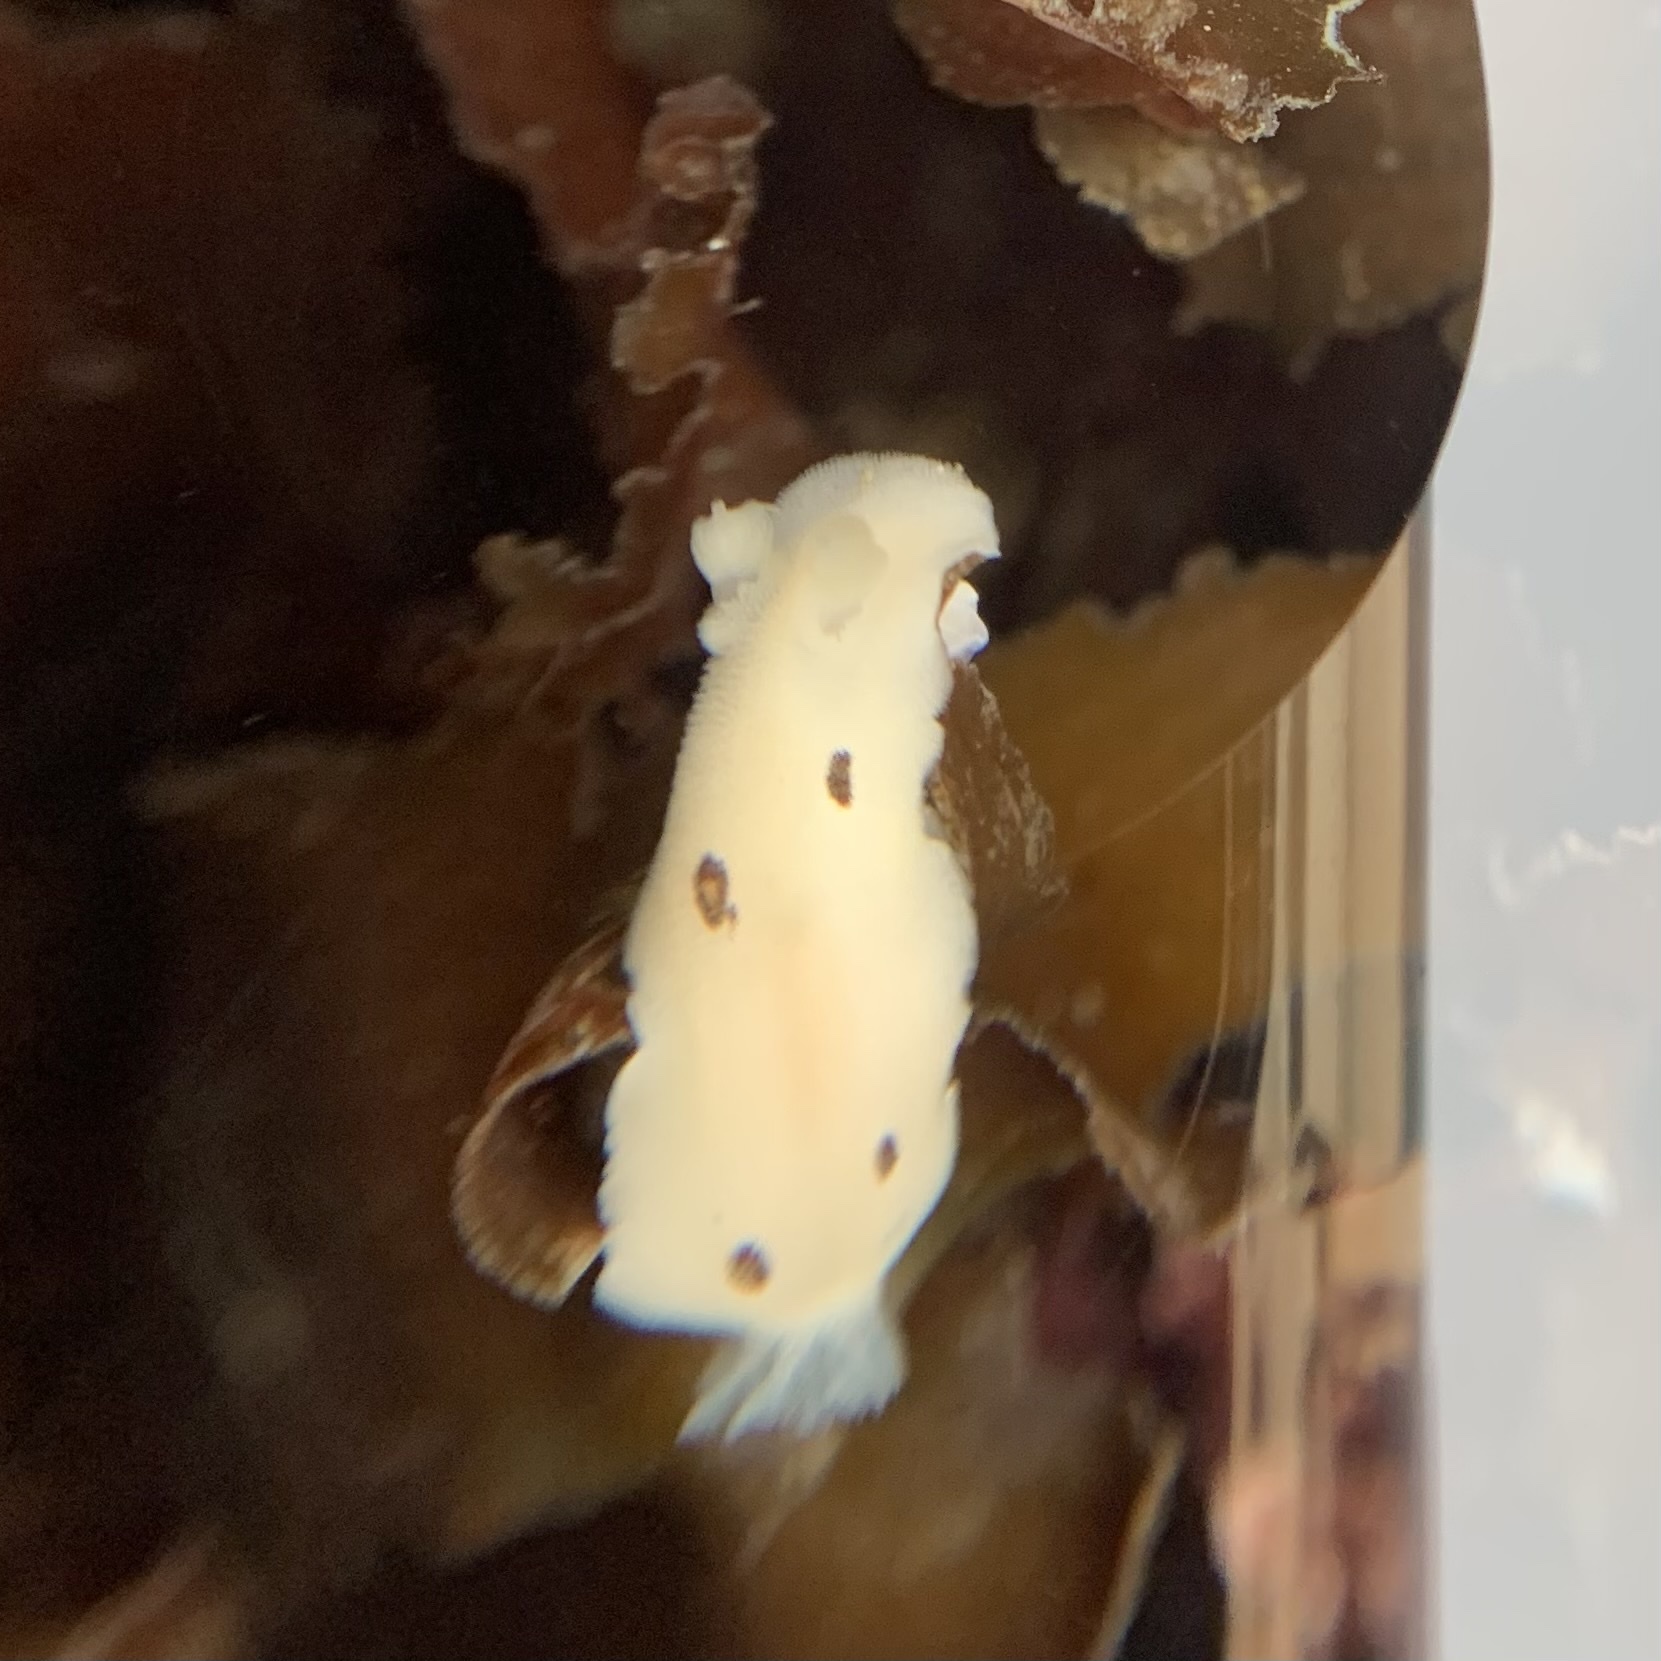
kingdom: Animalia
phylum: Mollusca
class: Gastropoda
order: Nudibranchia
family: Discodorididae
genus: Diaulula
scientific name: Diaulula sandiegensis
